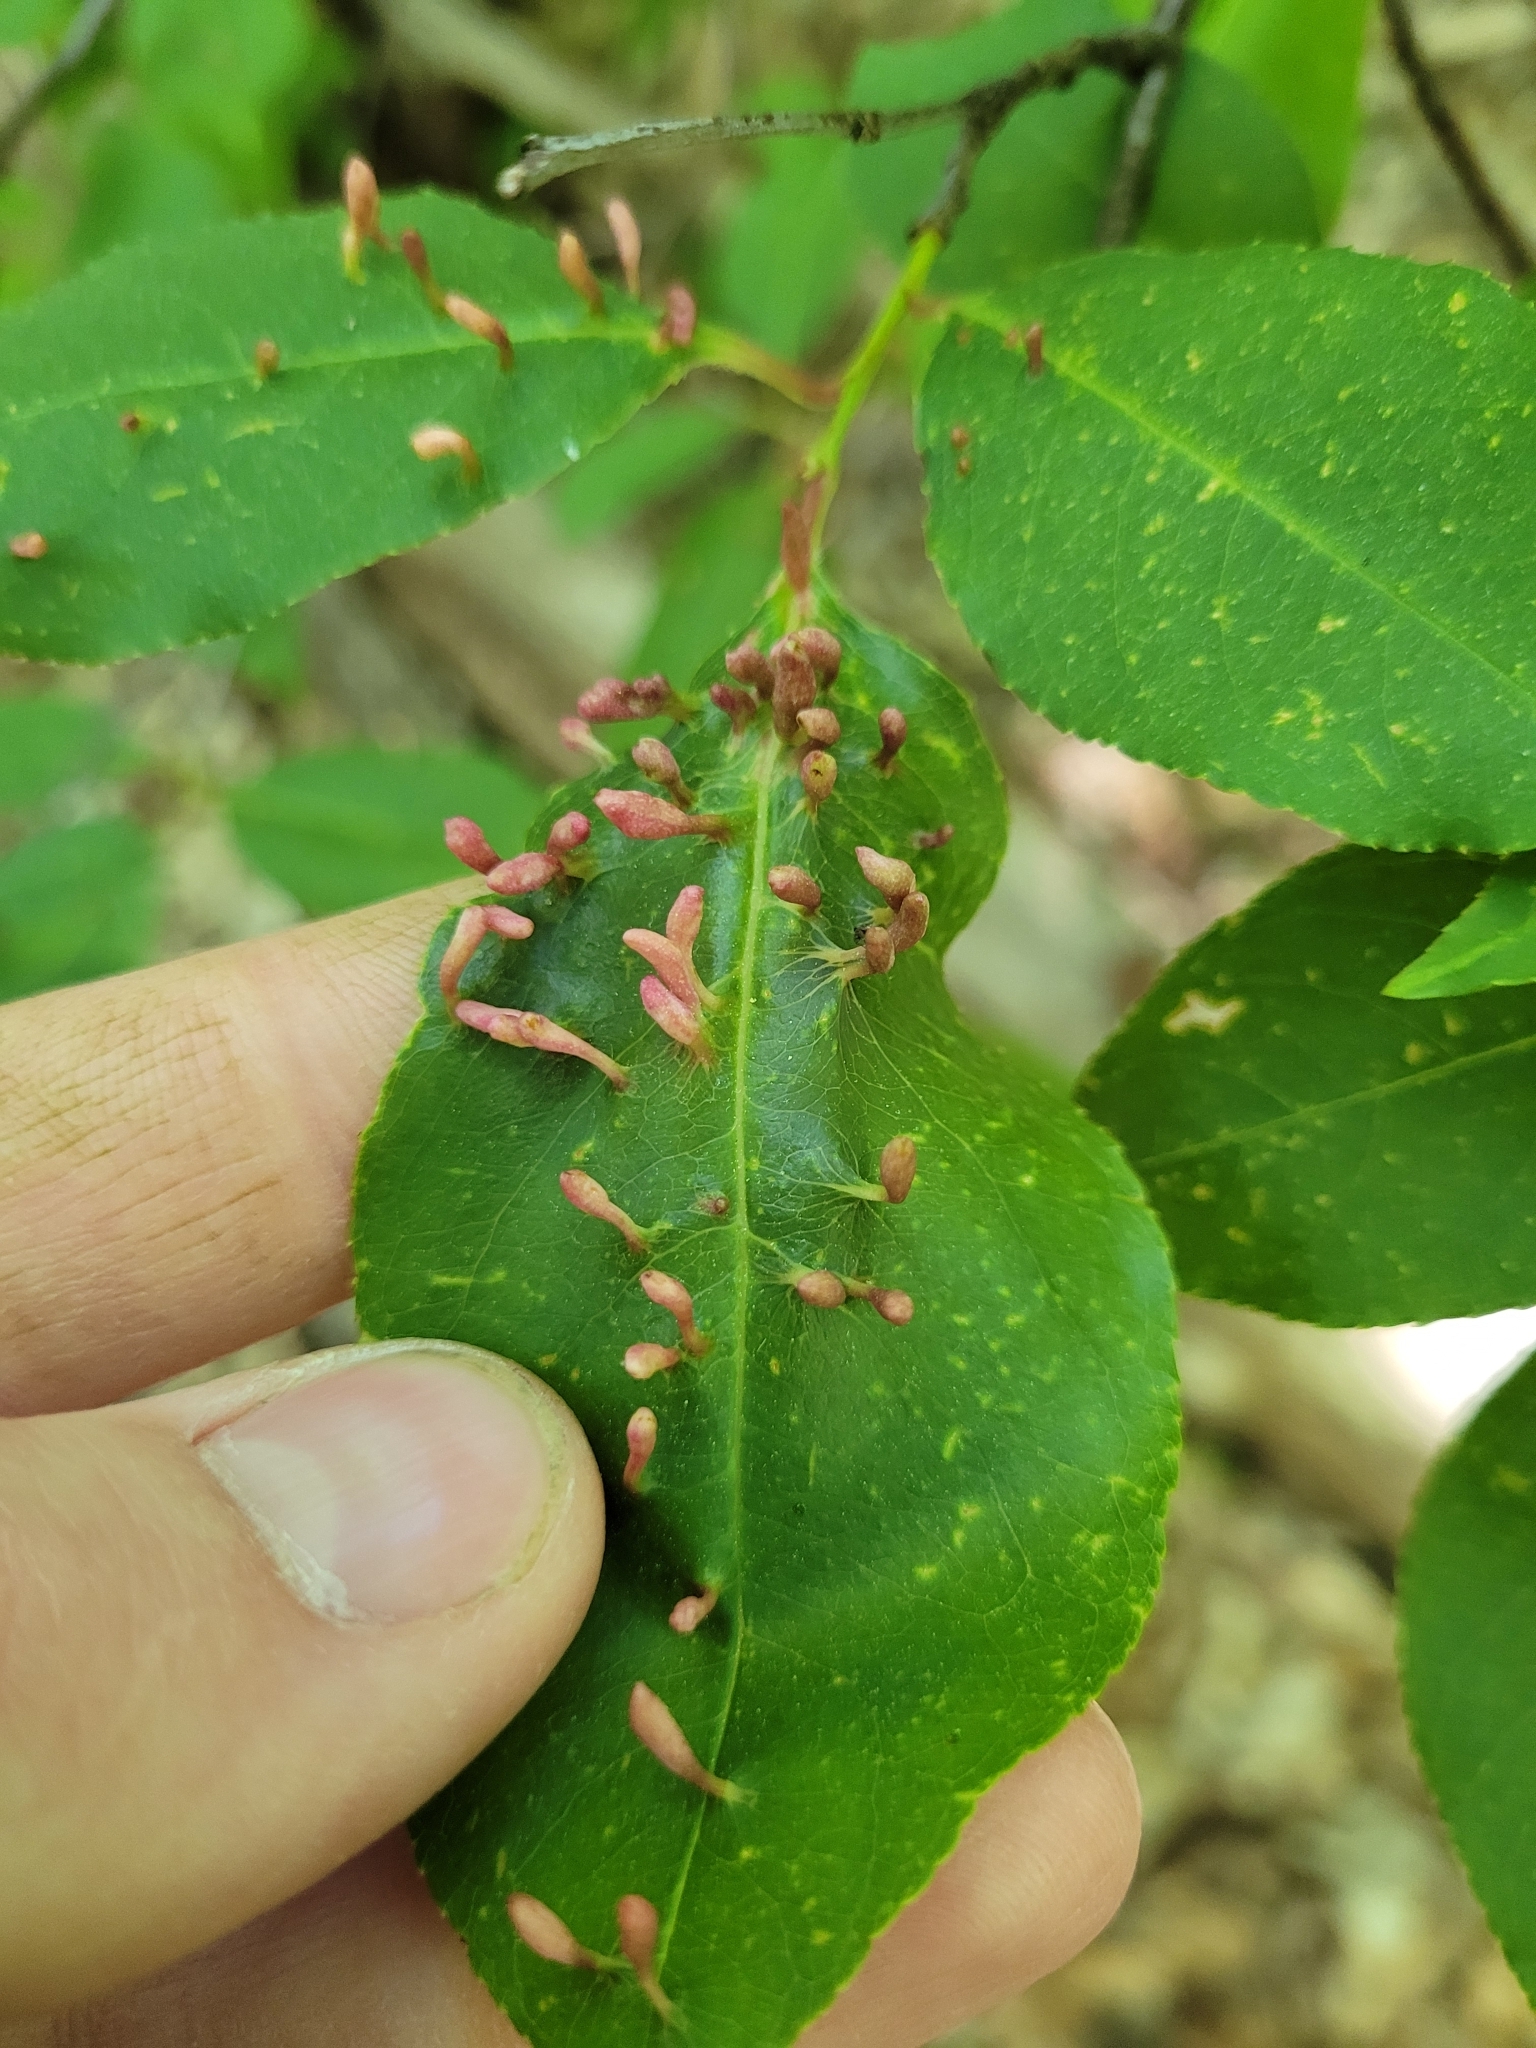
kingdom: Animalia
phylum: Arthropoda
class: Arachnida
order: Trombidiformes
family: Eriophyidae
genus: Eriophyes
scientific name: Eriophyes
